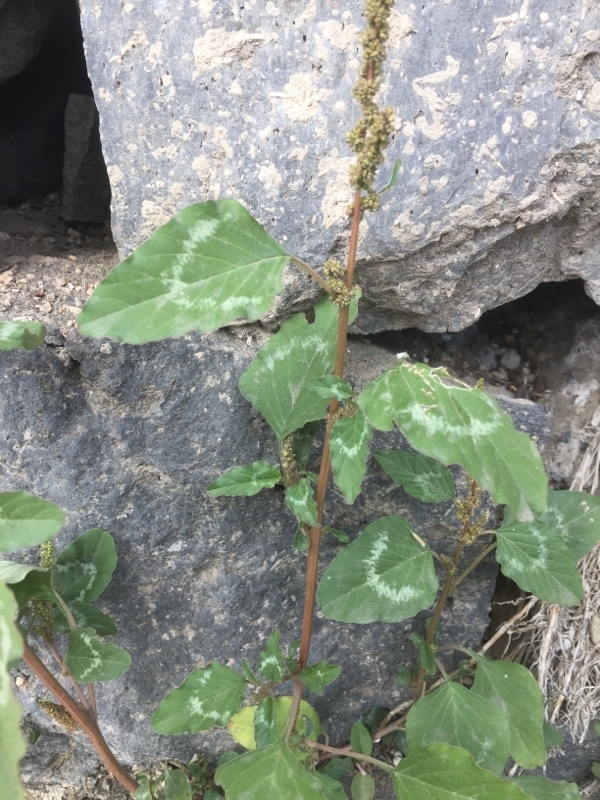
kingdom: Plantae
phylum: Tracheophyta
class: Magnoliopsida
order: Caryophyllales
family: Amaranthaceae
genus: Amaranthus
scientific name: Amaranthus viridis
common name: Slender amaranth
